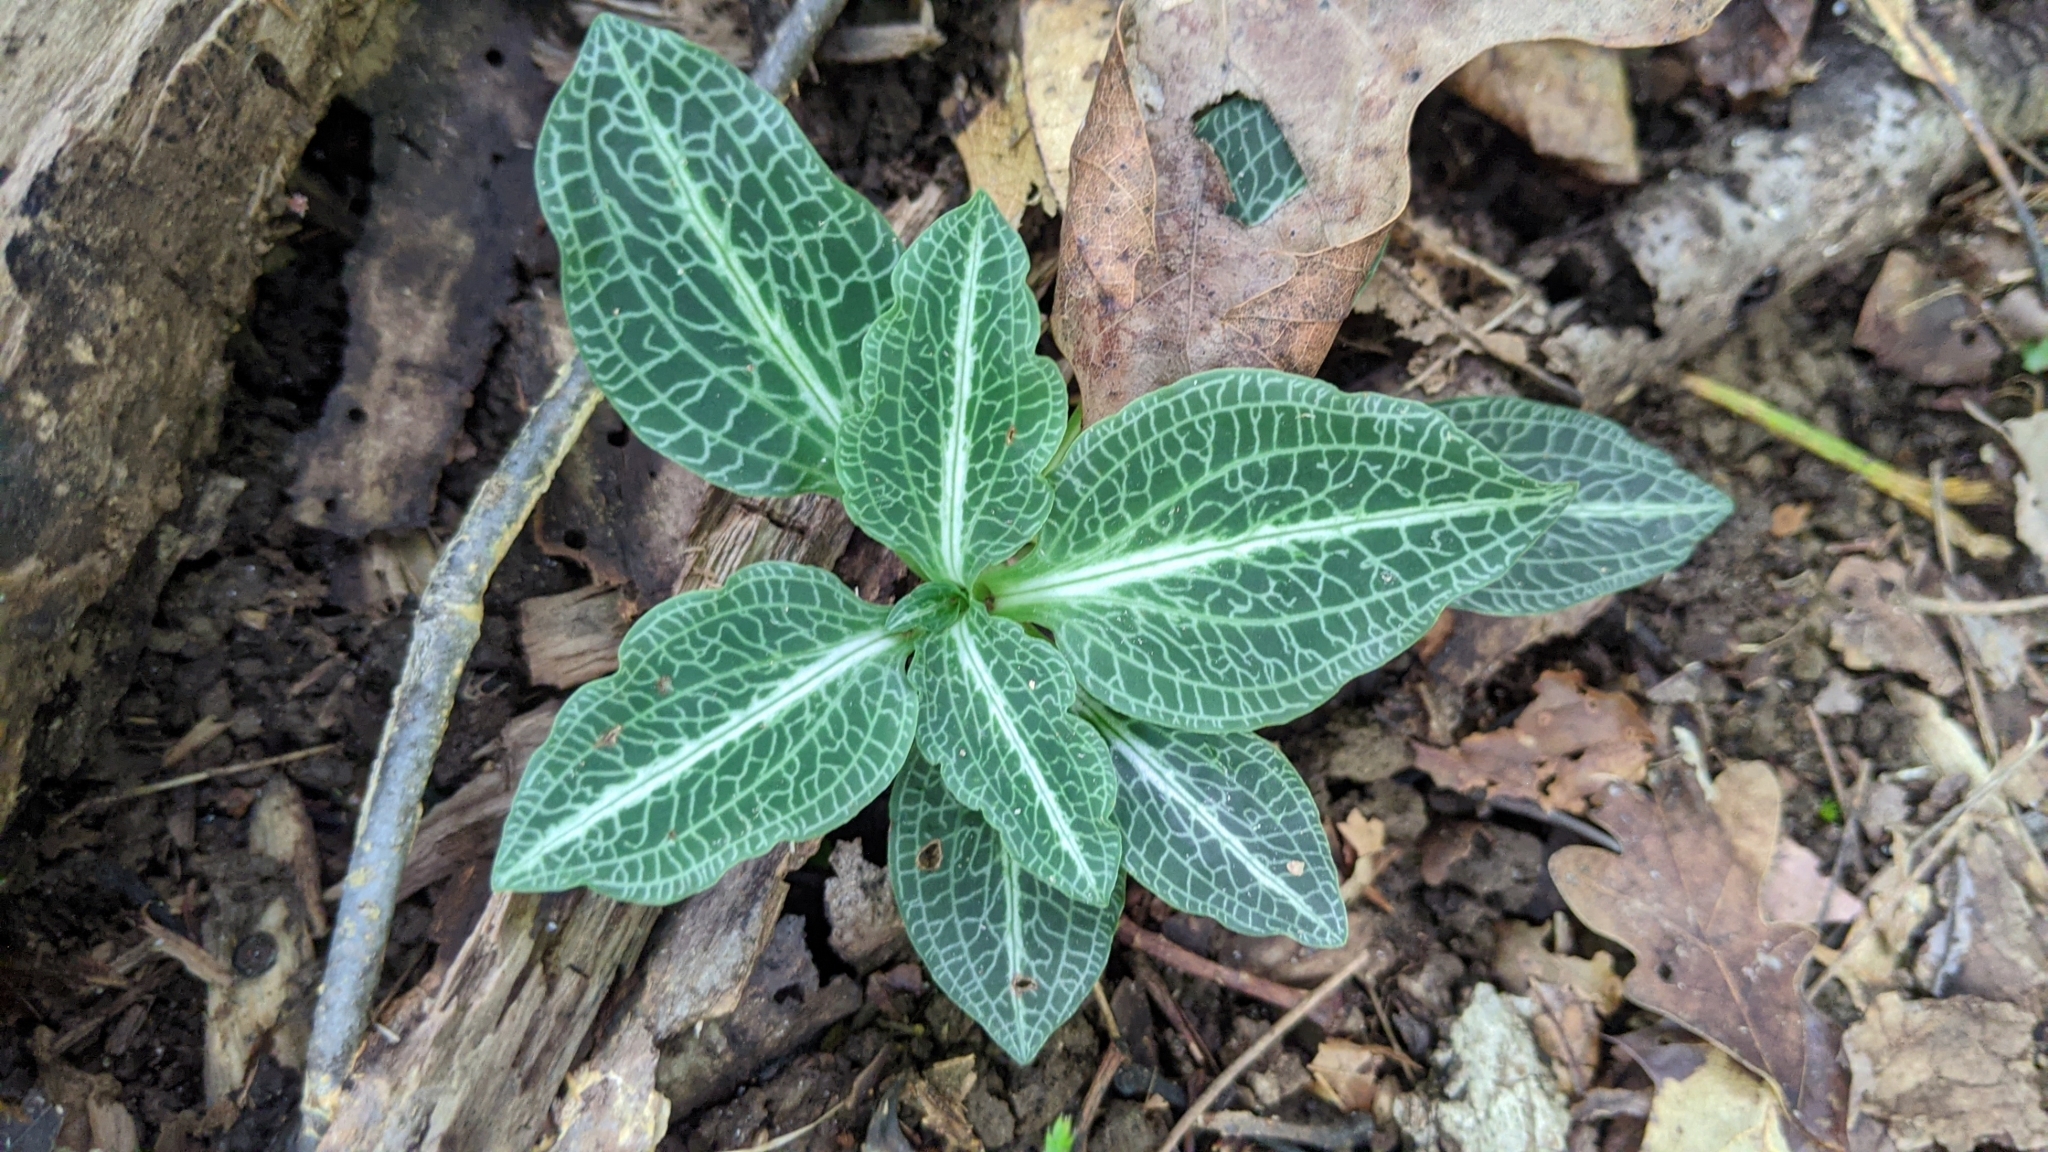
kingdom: Plantae
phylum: Tracheophyta
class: Liliopsida
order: Asparagales
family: Orchidaceae
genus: Goodyera
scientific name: Goodyera pubescens
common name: Downy rattlesnake-plantain
